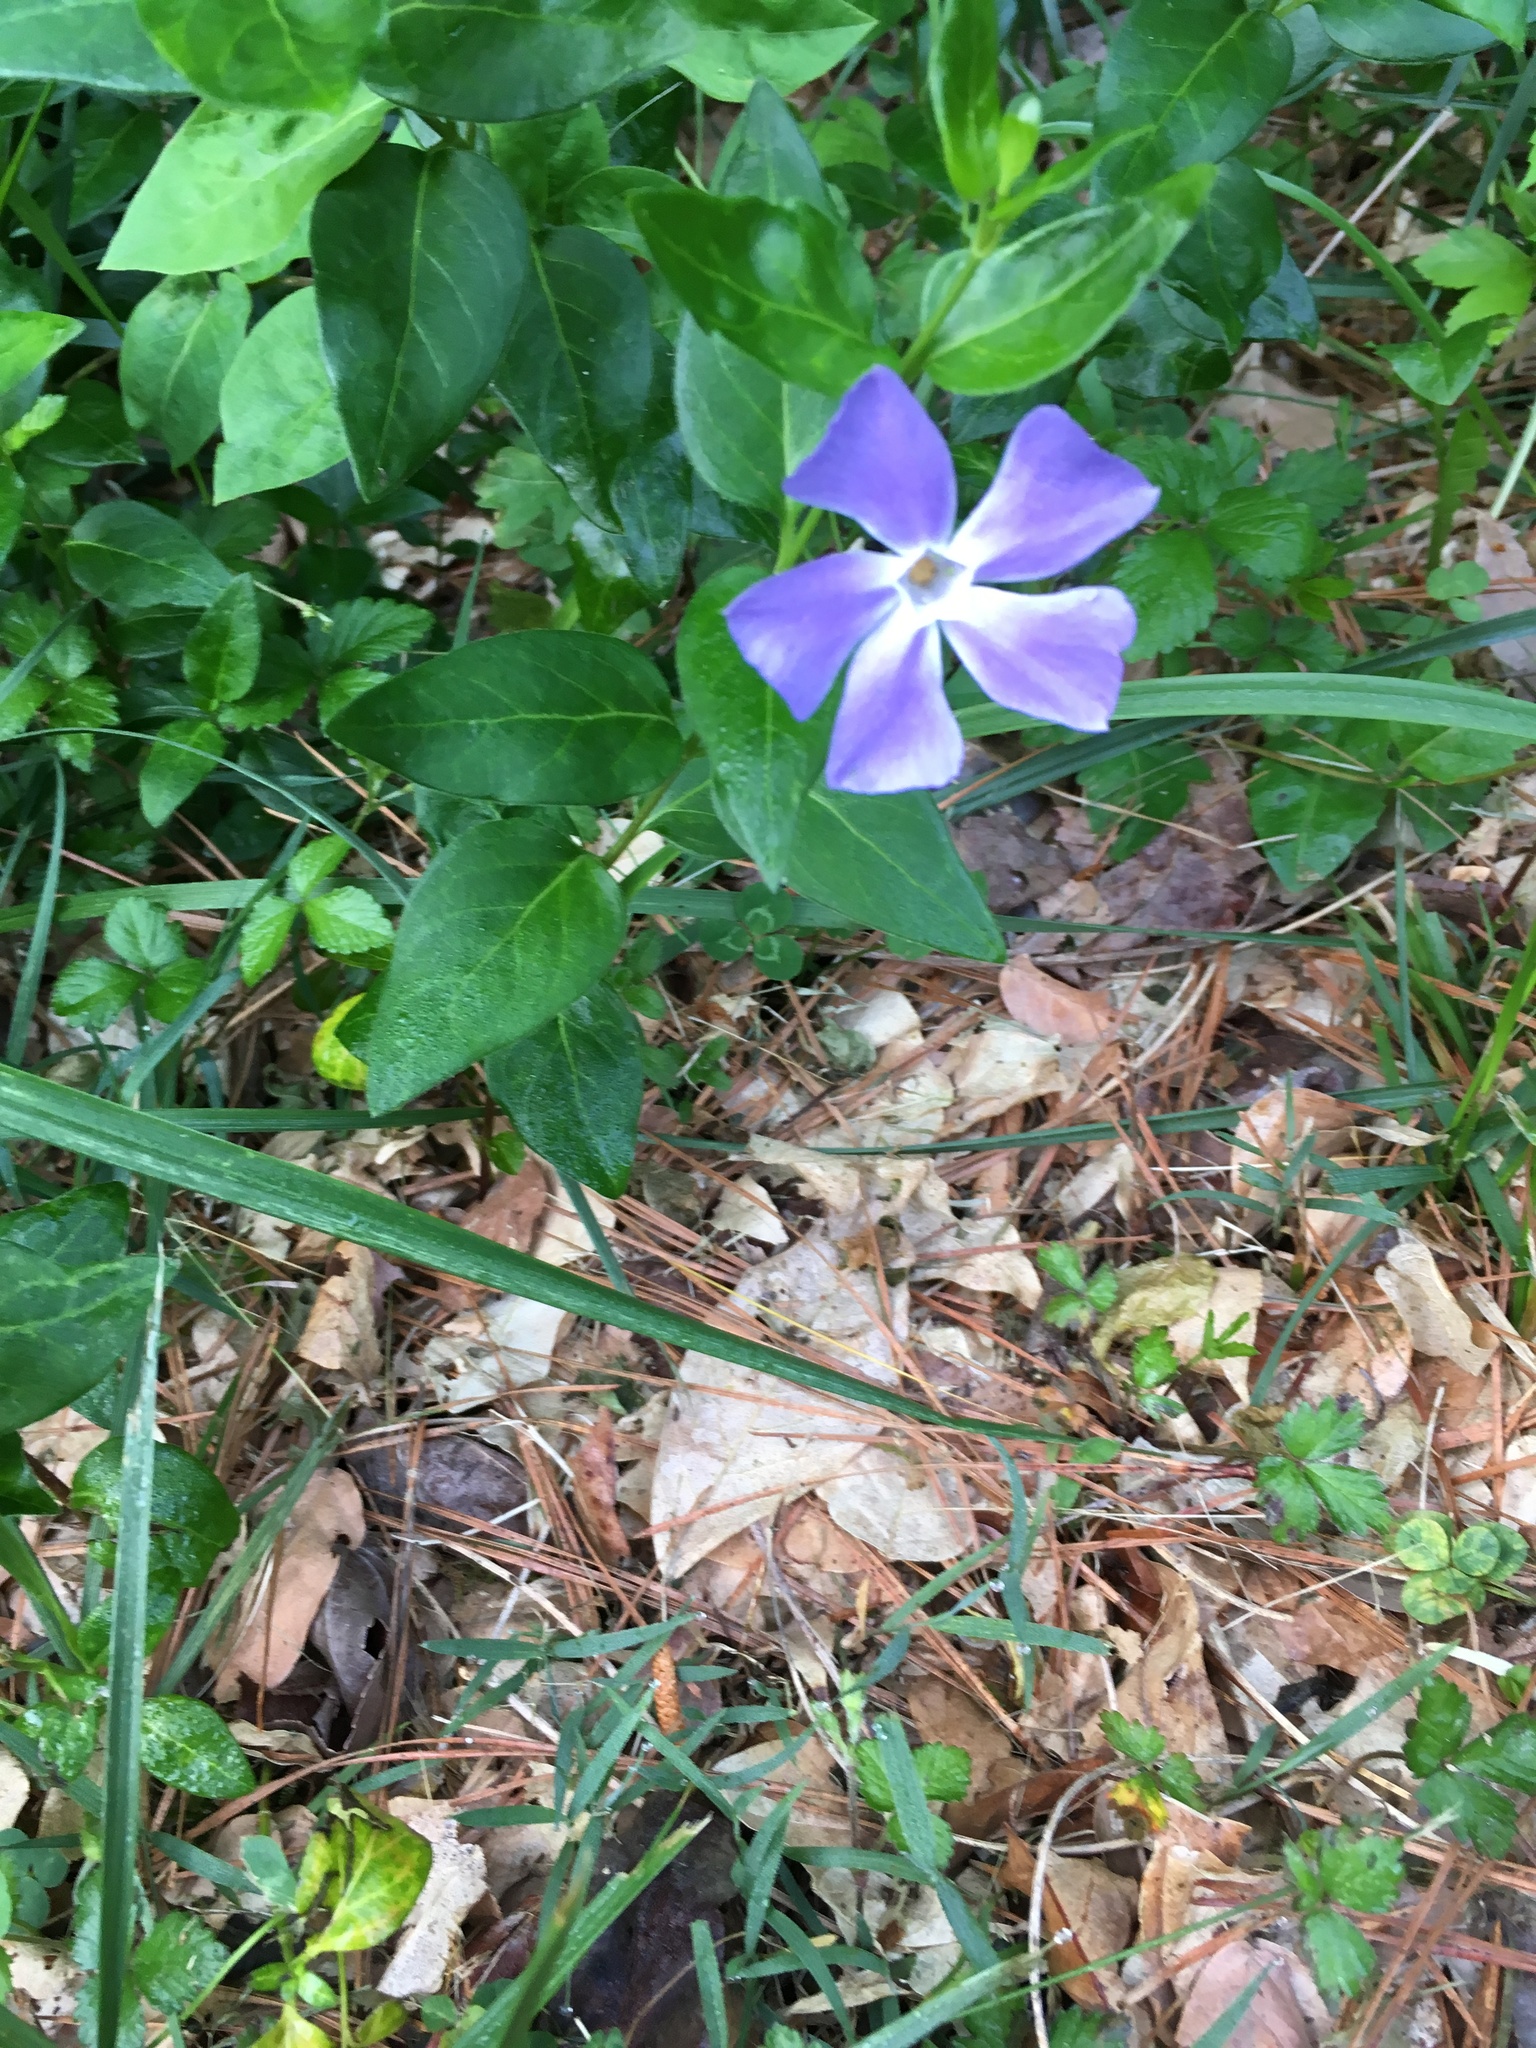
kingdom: Plantae
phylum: Tracheophyta
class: Magnoliopsida
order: Gentianales
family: Apocynaceae
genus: Vinca
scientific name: Vinca major
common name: Greater periwinkle
